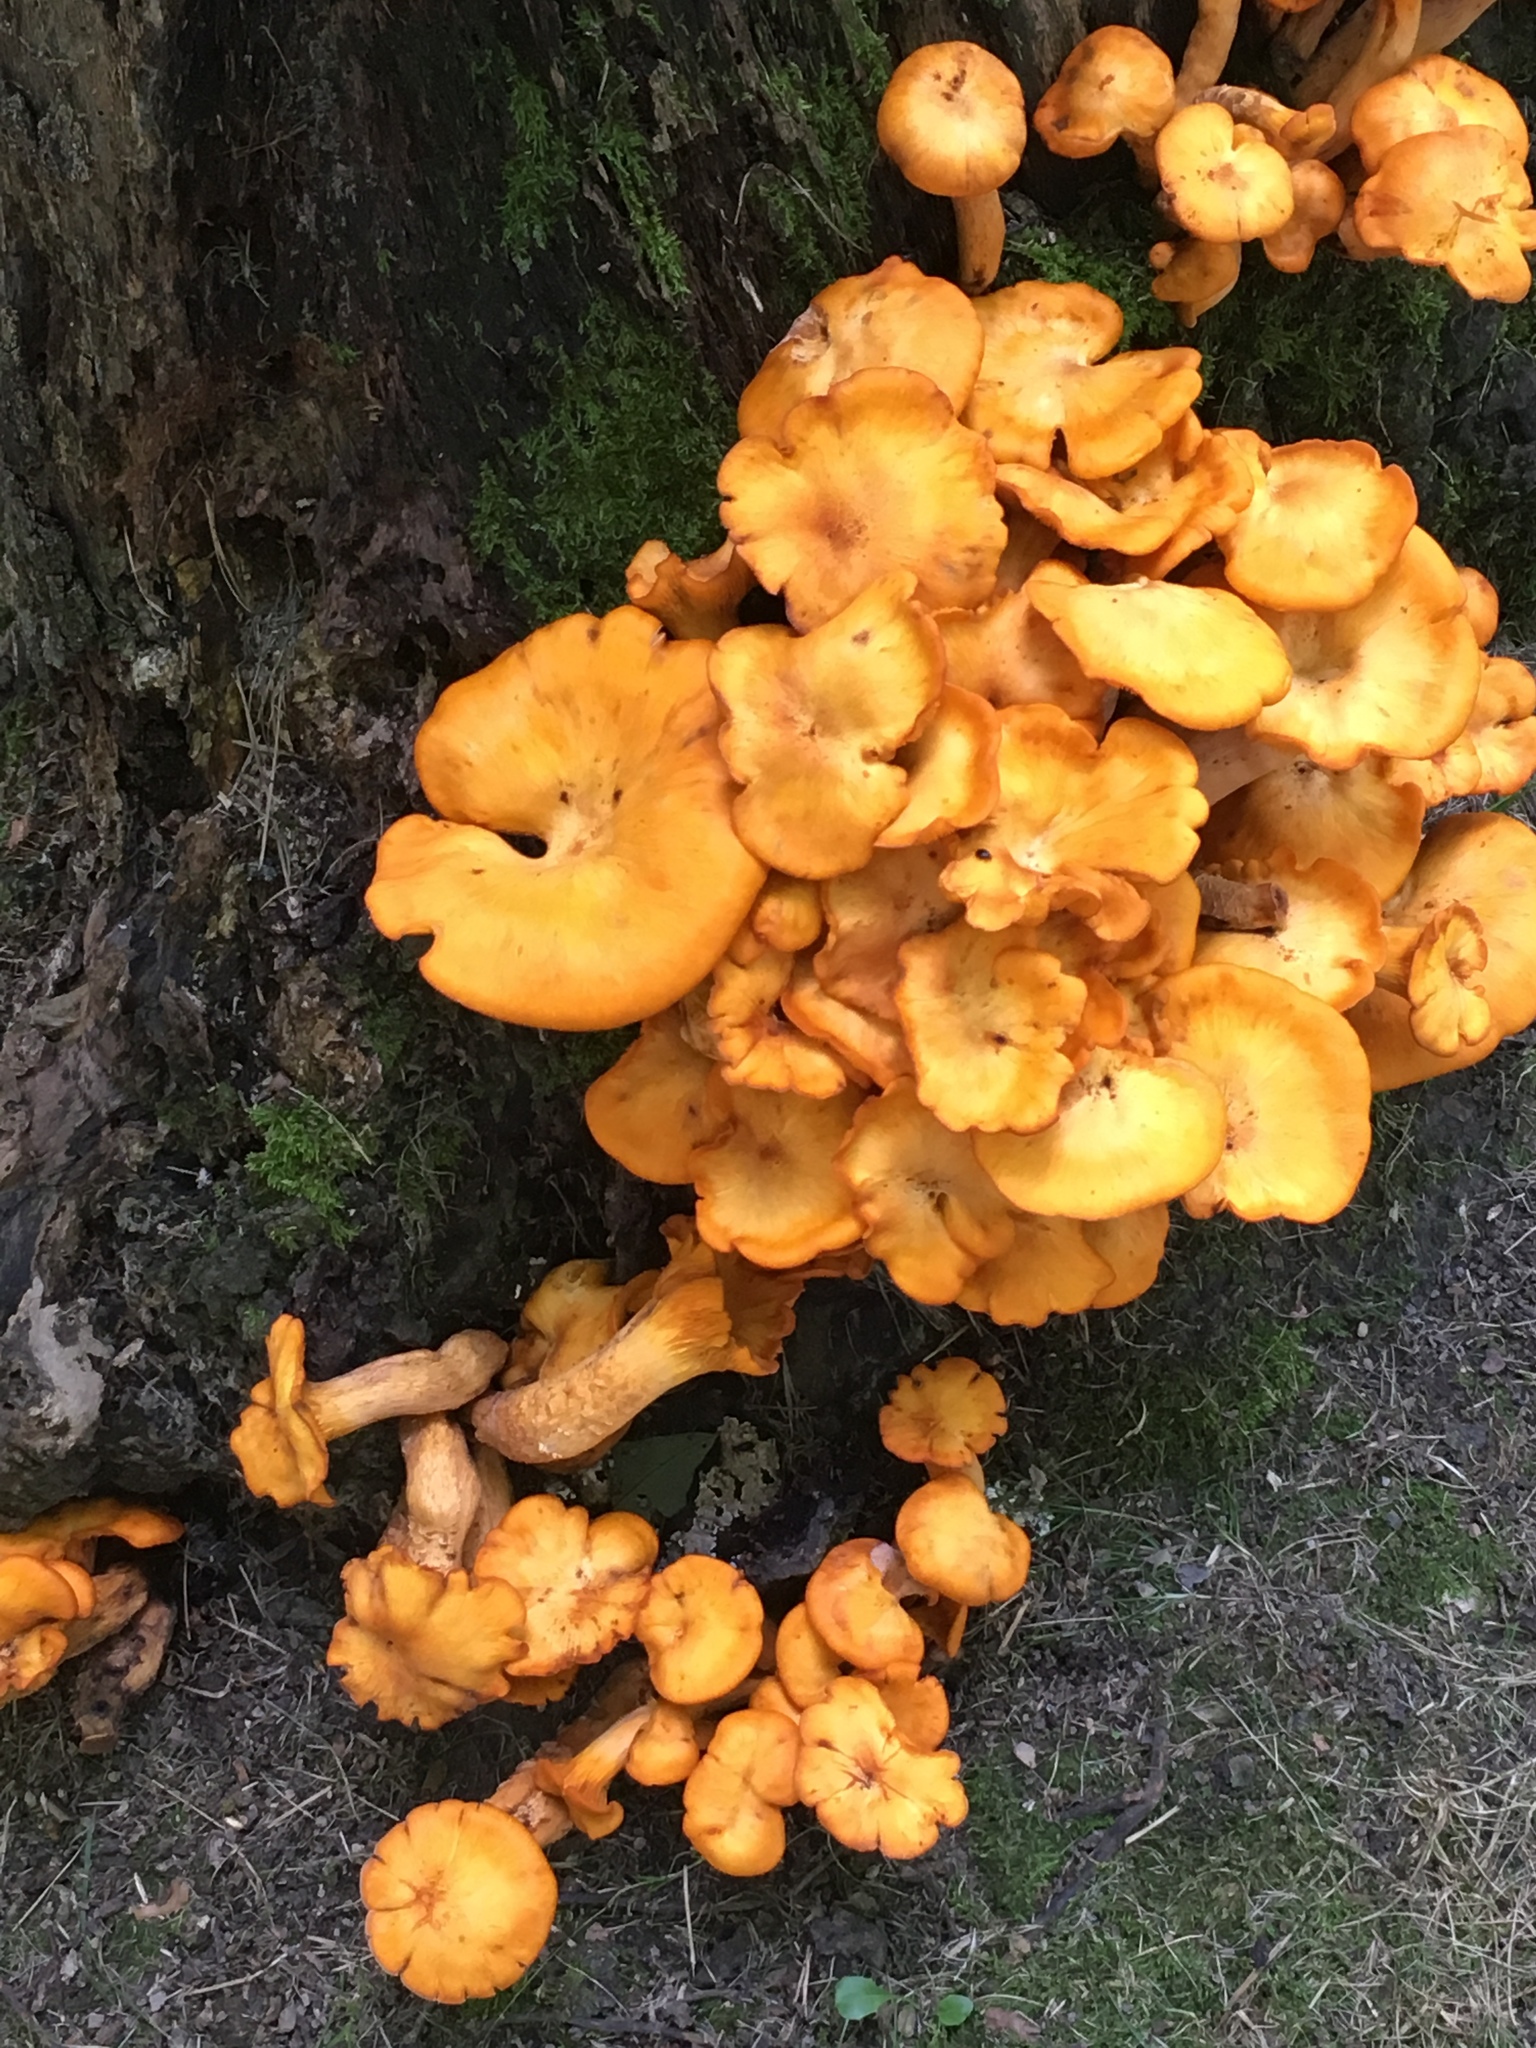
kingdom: Fungi
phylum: Basidiomycota
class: Agaricomycetes
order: Agaricales
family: Omphalotaceae
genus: Omphalotus
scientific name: Omphalotus illudens
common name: Jack o lantern
